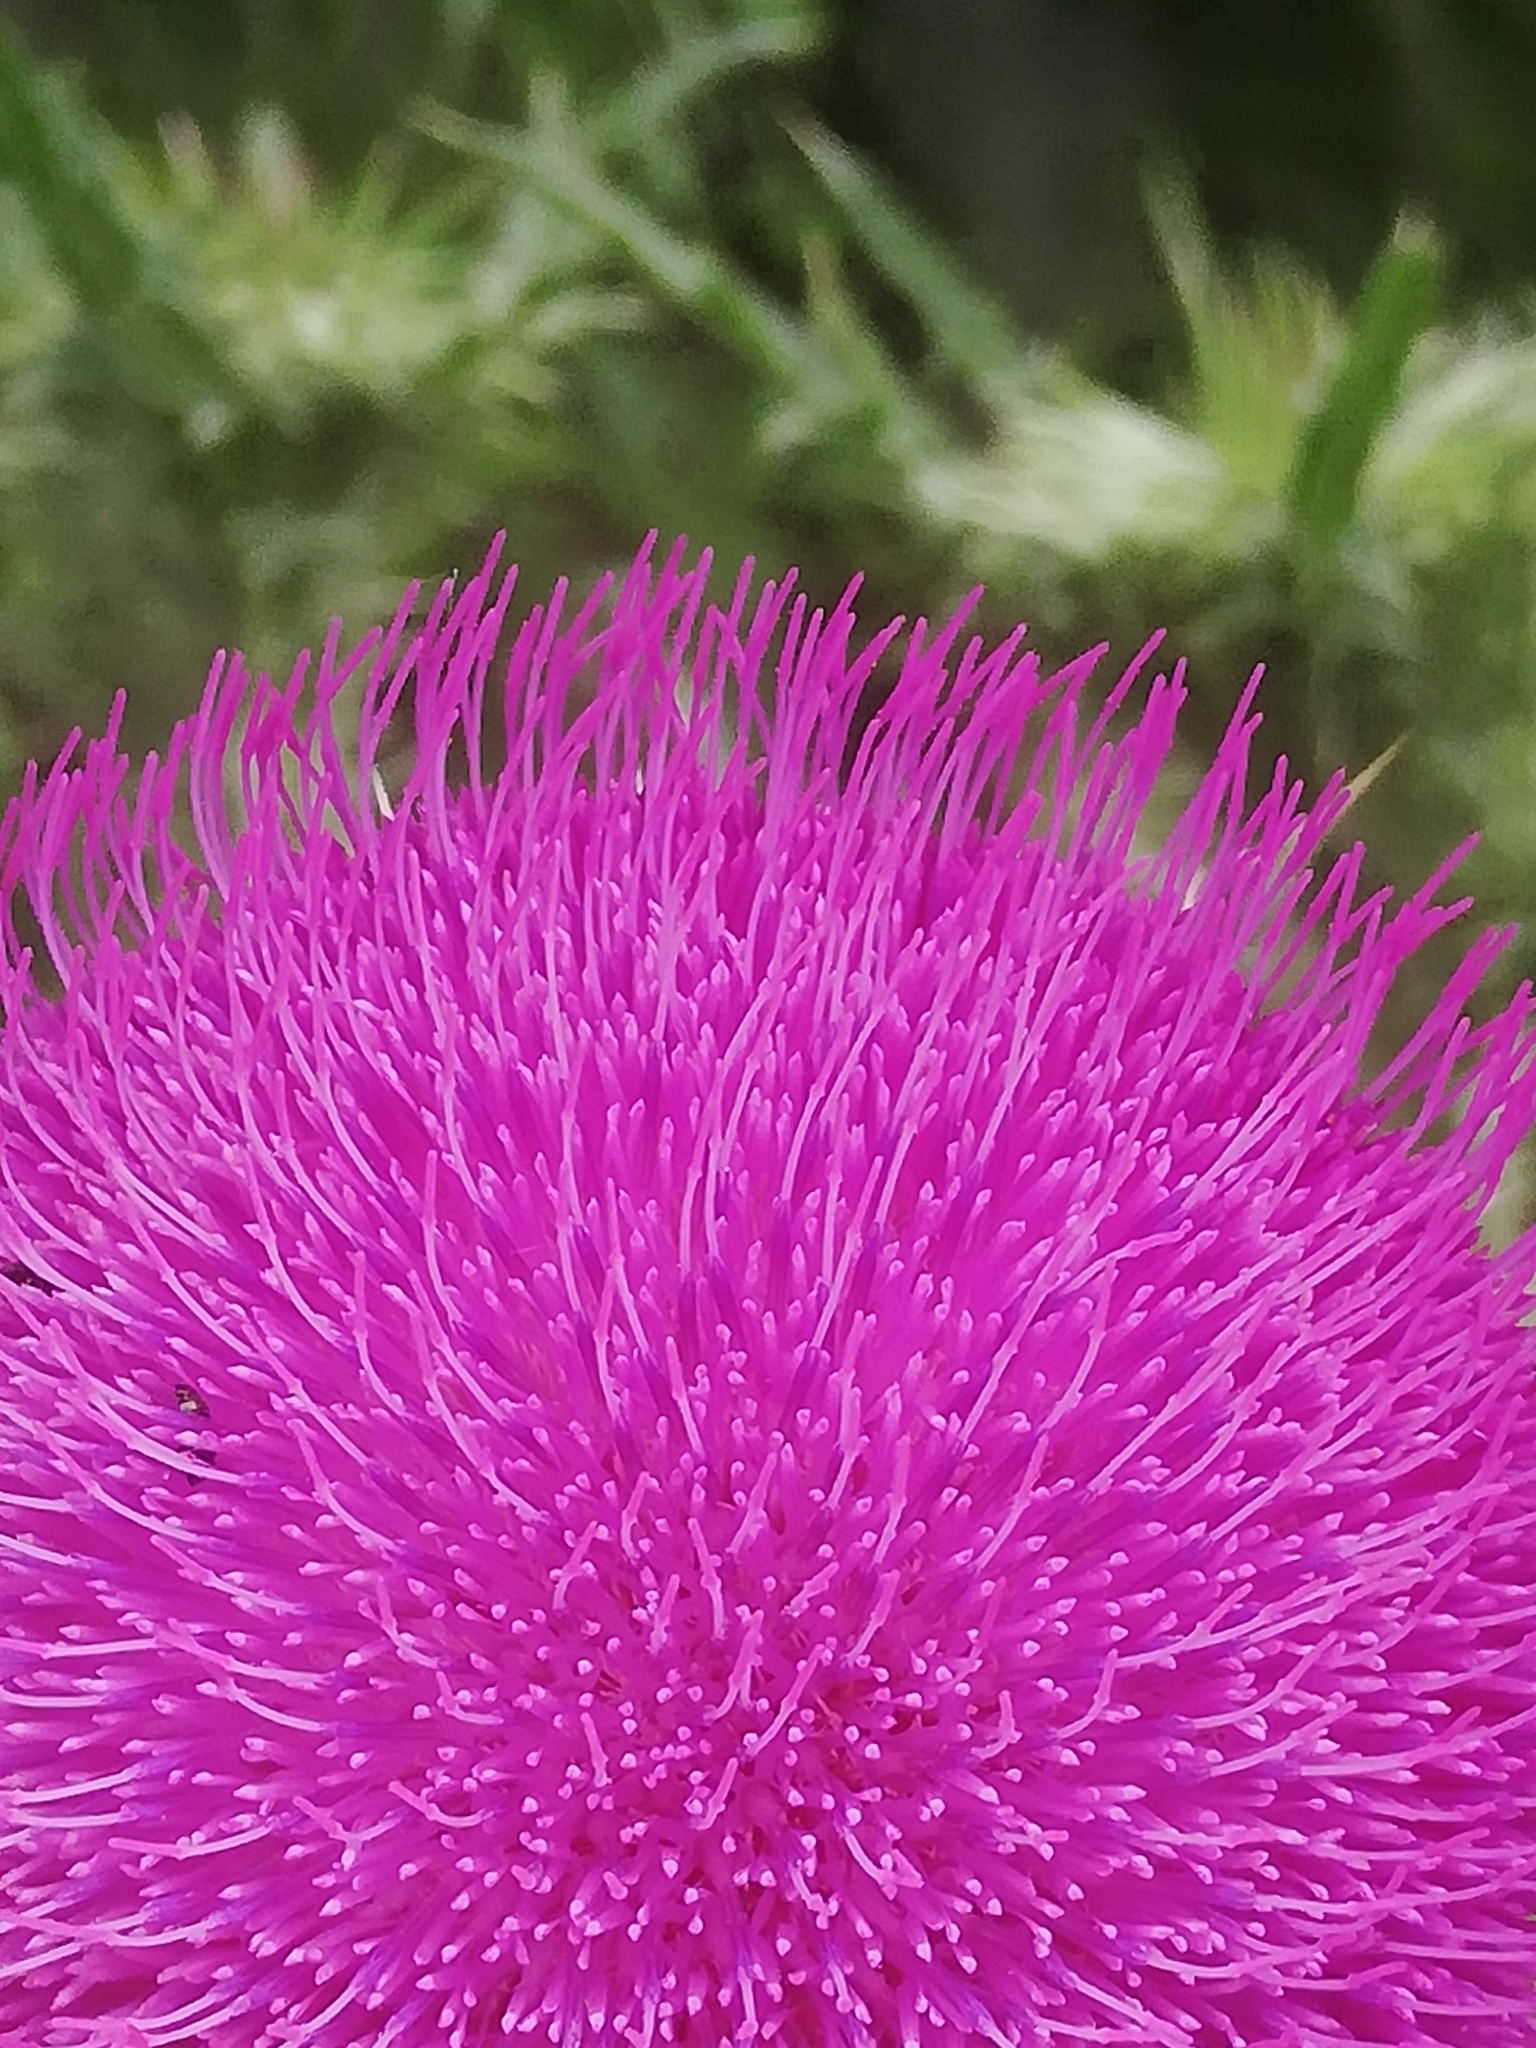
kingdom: Plantae
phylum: Tracheophyta
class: Magnoliopsida
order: Asterales
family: Asteraceae
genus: Carduus
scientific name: Carduus nutans
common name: Musk thistle
